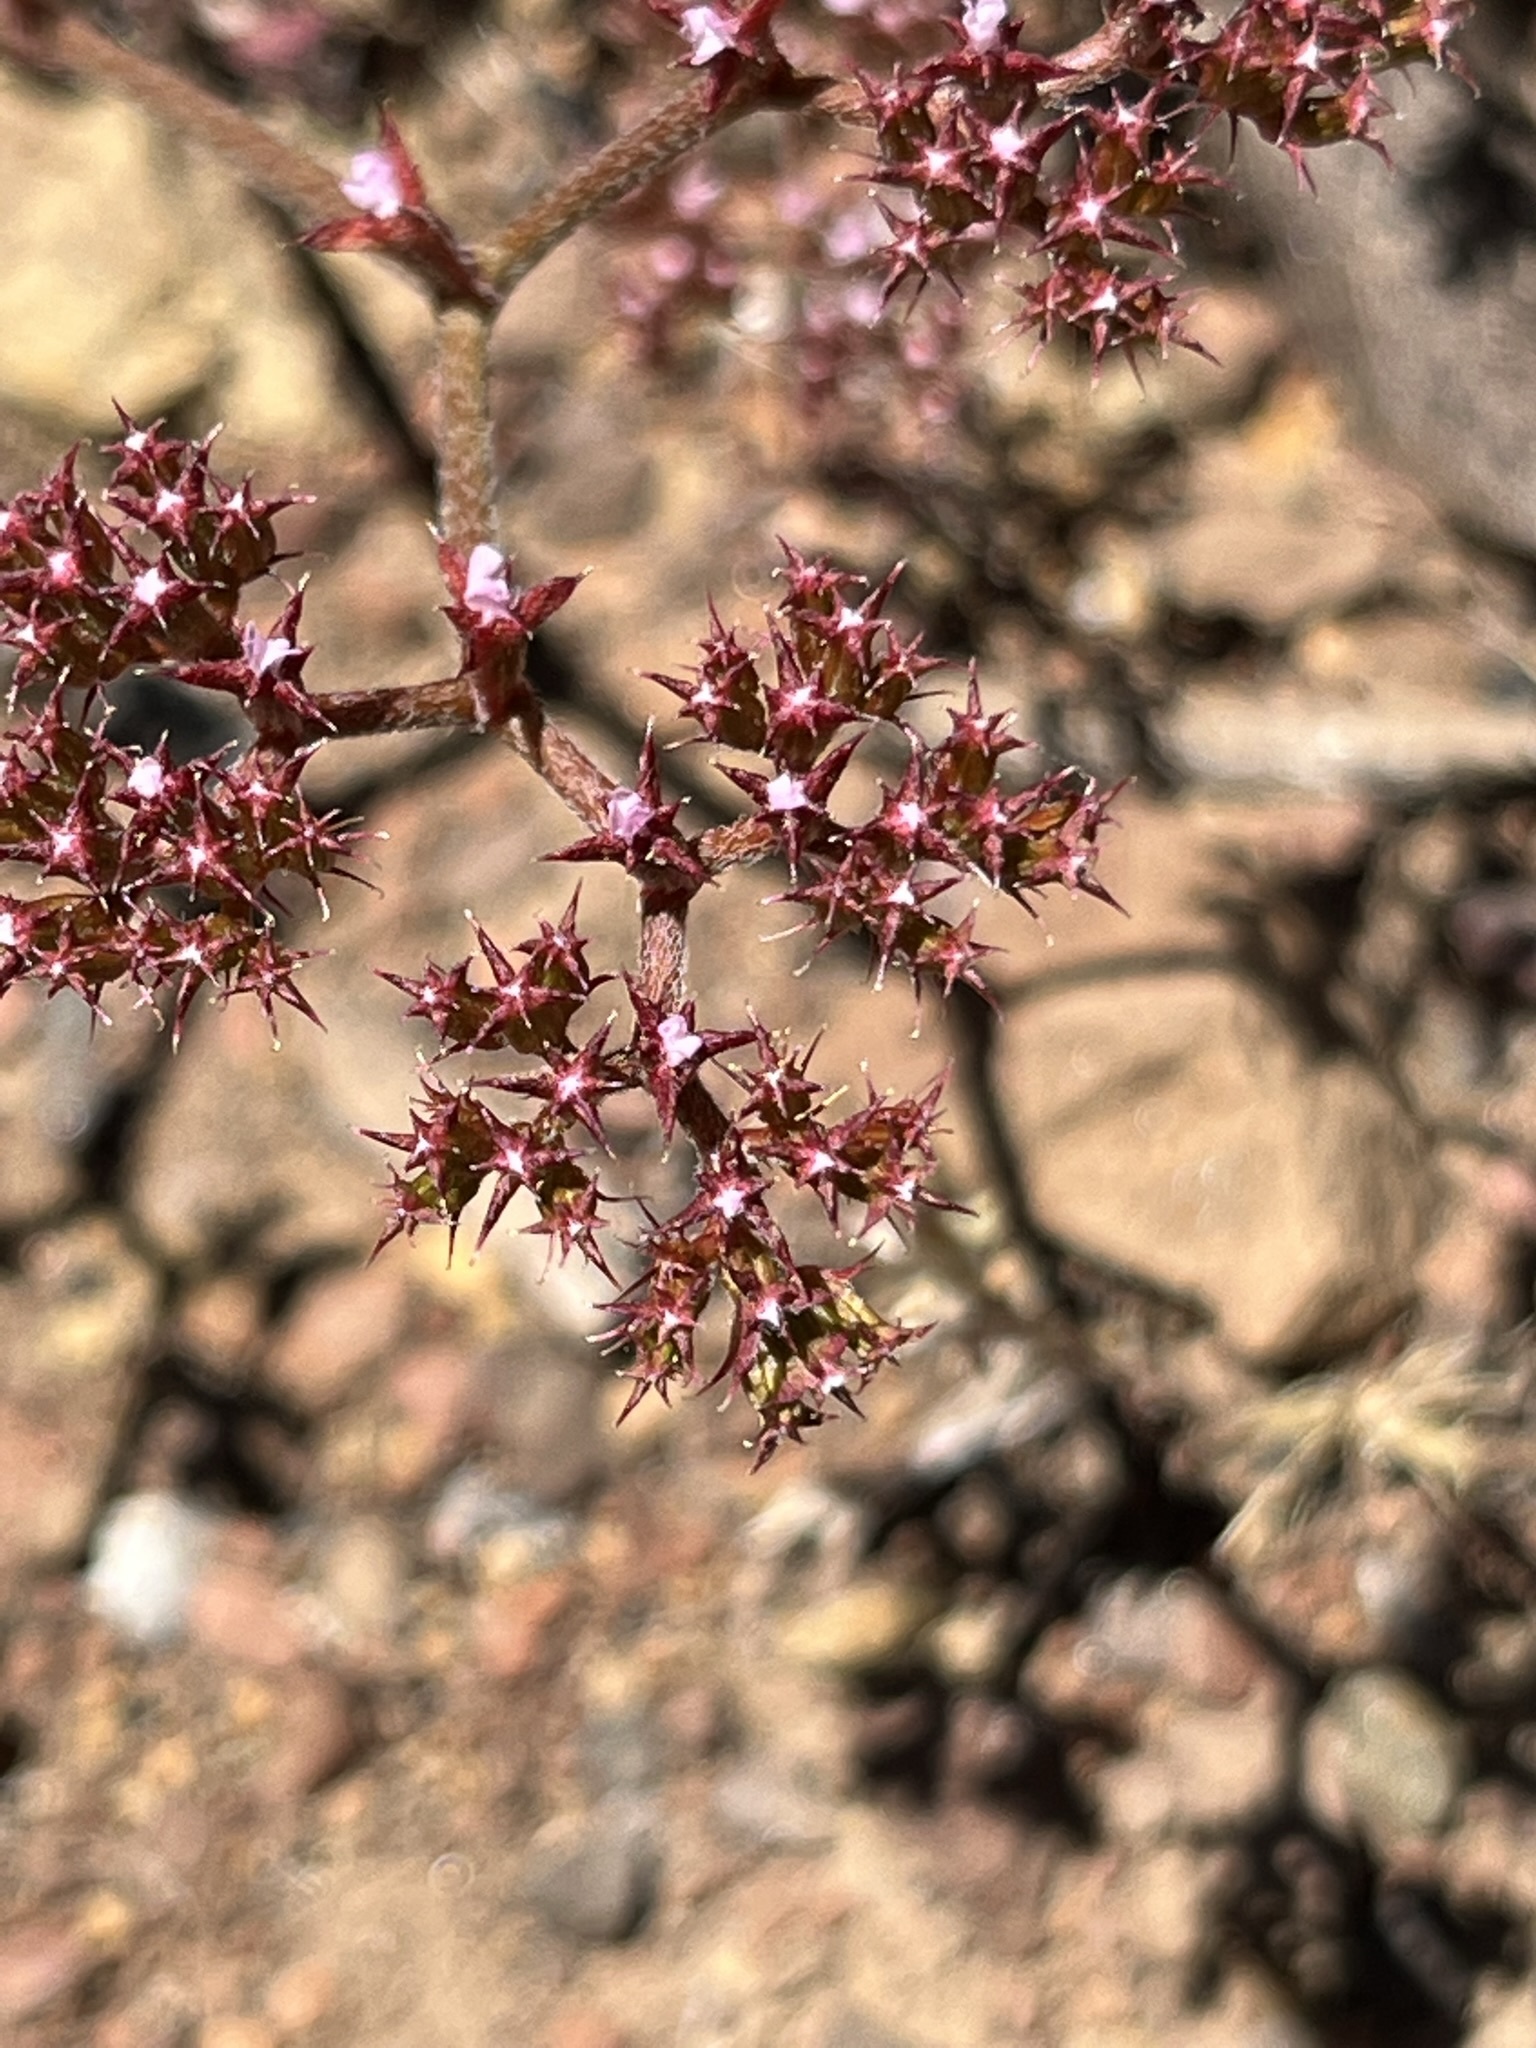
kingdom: Plantae
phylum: Tracheophyta
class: Magnoliopsida
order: Caryophyllales
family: Polygonaceae
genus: Chorizanthe
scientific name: Chorizanthe breweri
